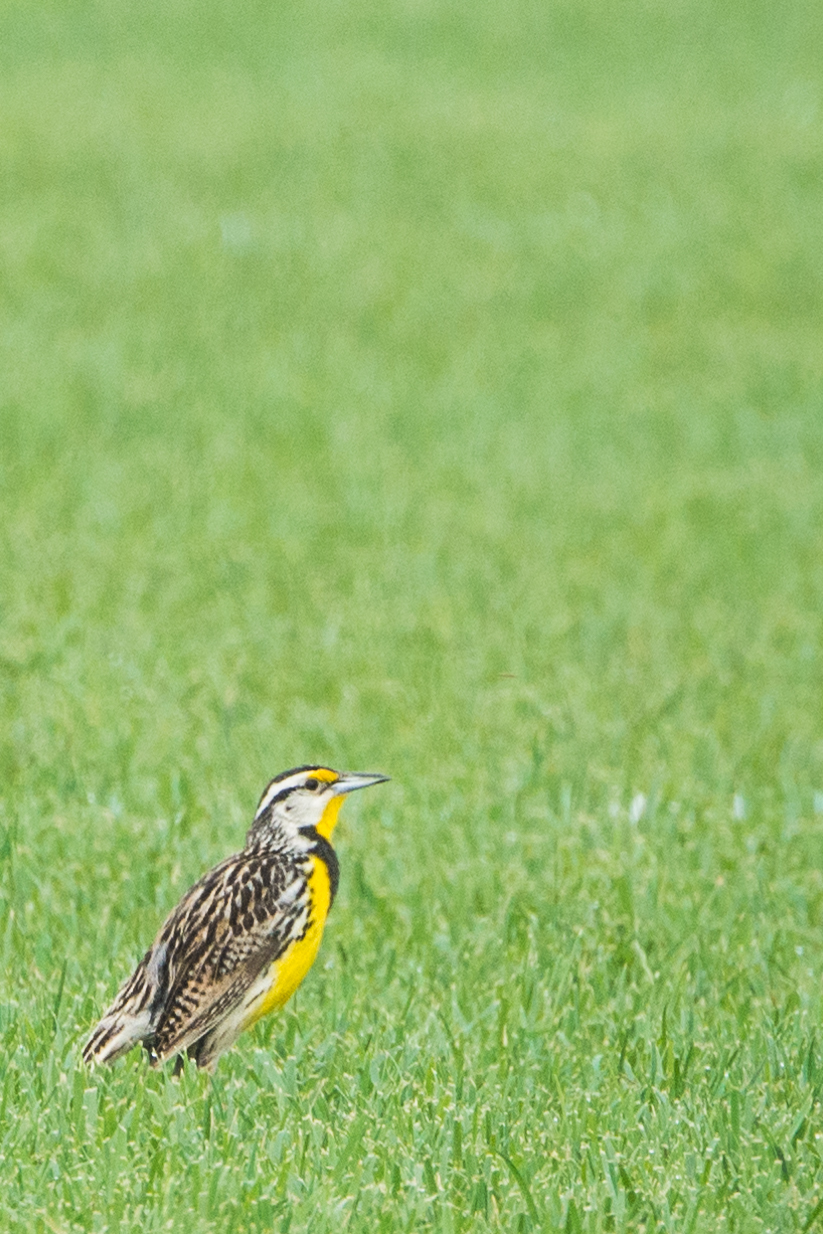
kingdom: Animalia
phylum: Chordata
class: Aves
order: Passeriformes
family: Icteridae
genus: Sturnella
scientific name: Sturnella magna
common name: Eastern meadowlark
